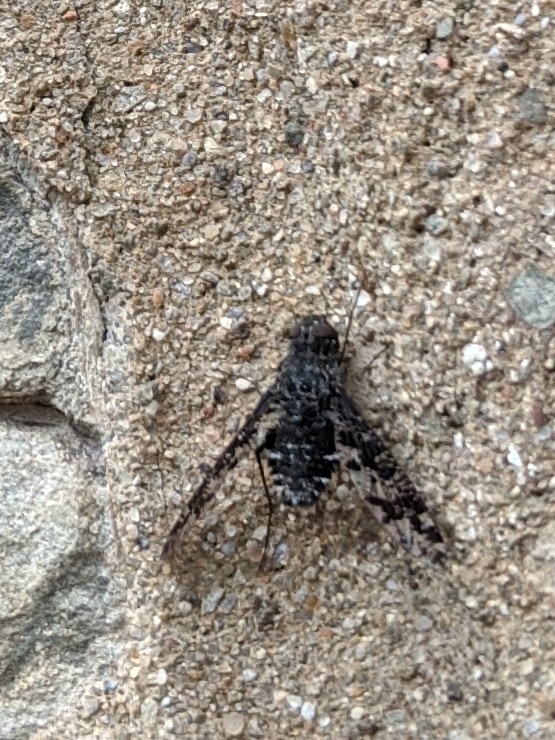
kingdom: Animalia
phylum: Arthropoda
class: Insecta
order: Diptera
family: Bombyliidae
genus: Anthrax
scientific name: Anthrax irroratus
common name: Spotted bee fly
